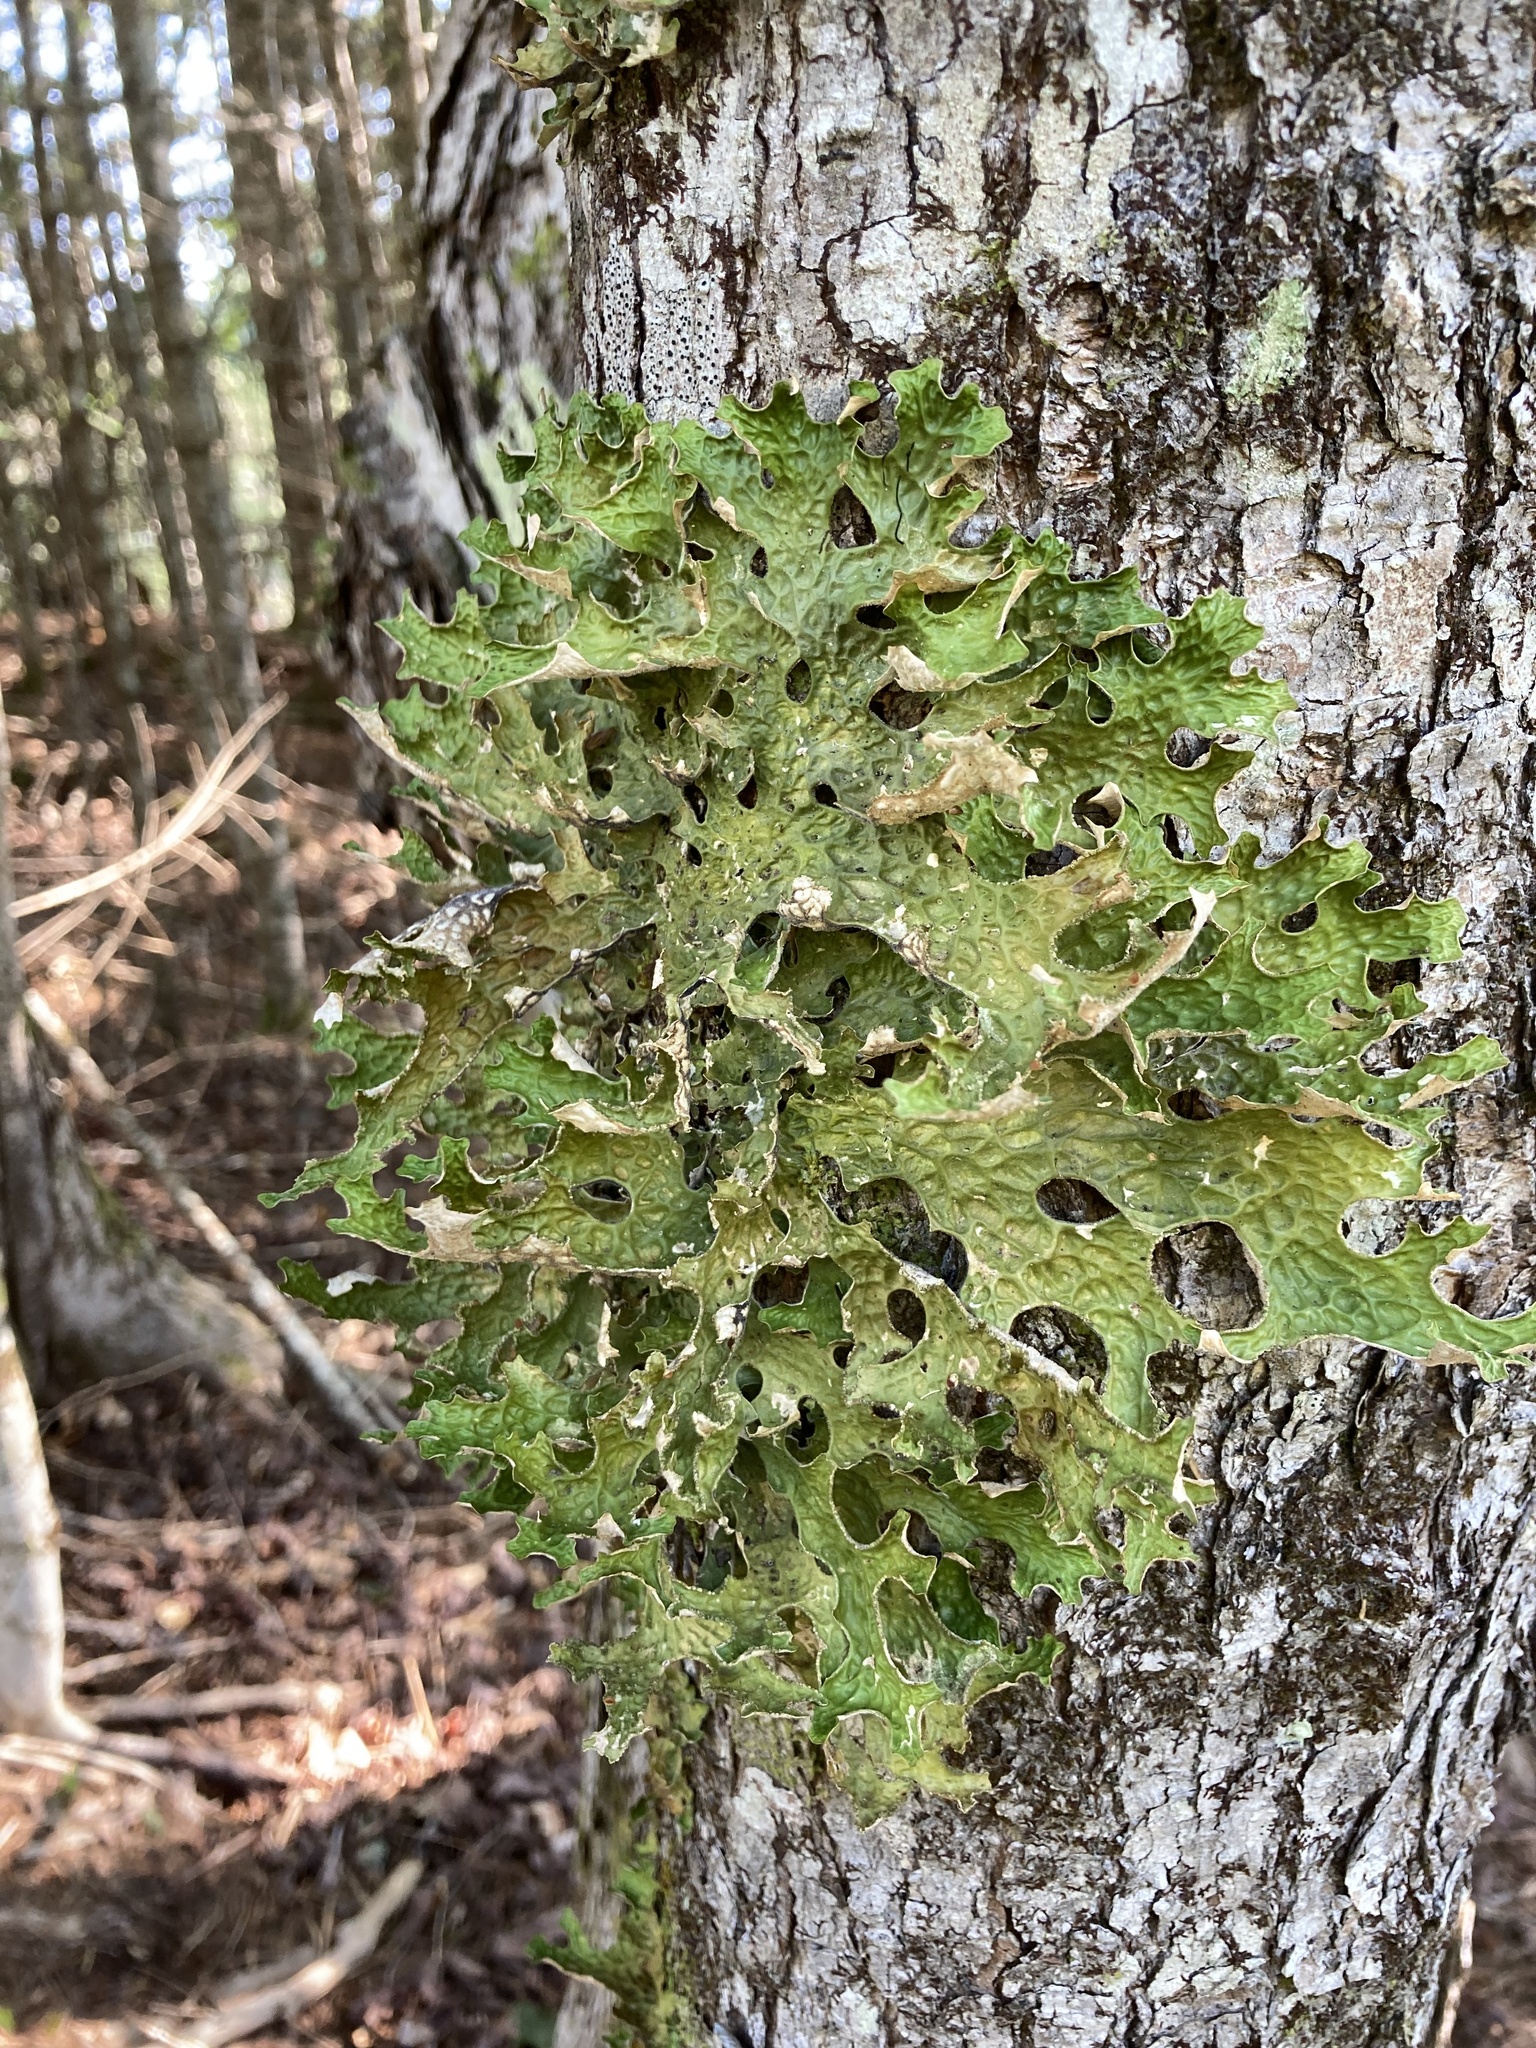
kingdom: Fungi
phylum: Ascomycota
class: Lecanoromycetes
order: Peltigerales
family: Lobariaceae
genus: Lobaria
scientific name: Lobaria pulmonaria
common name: Lungwort
